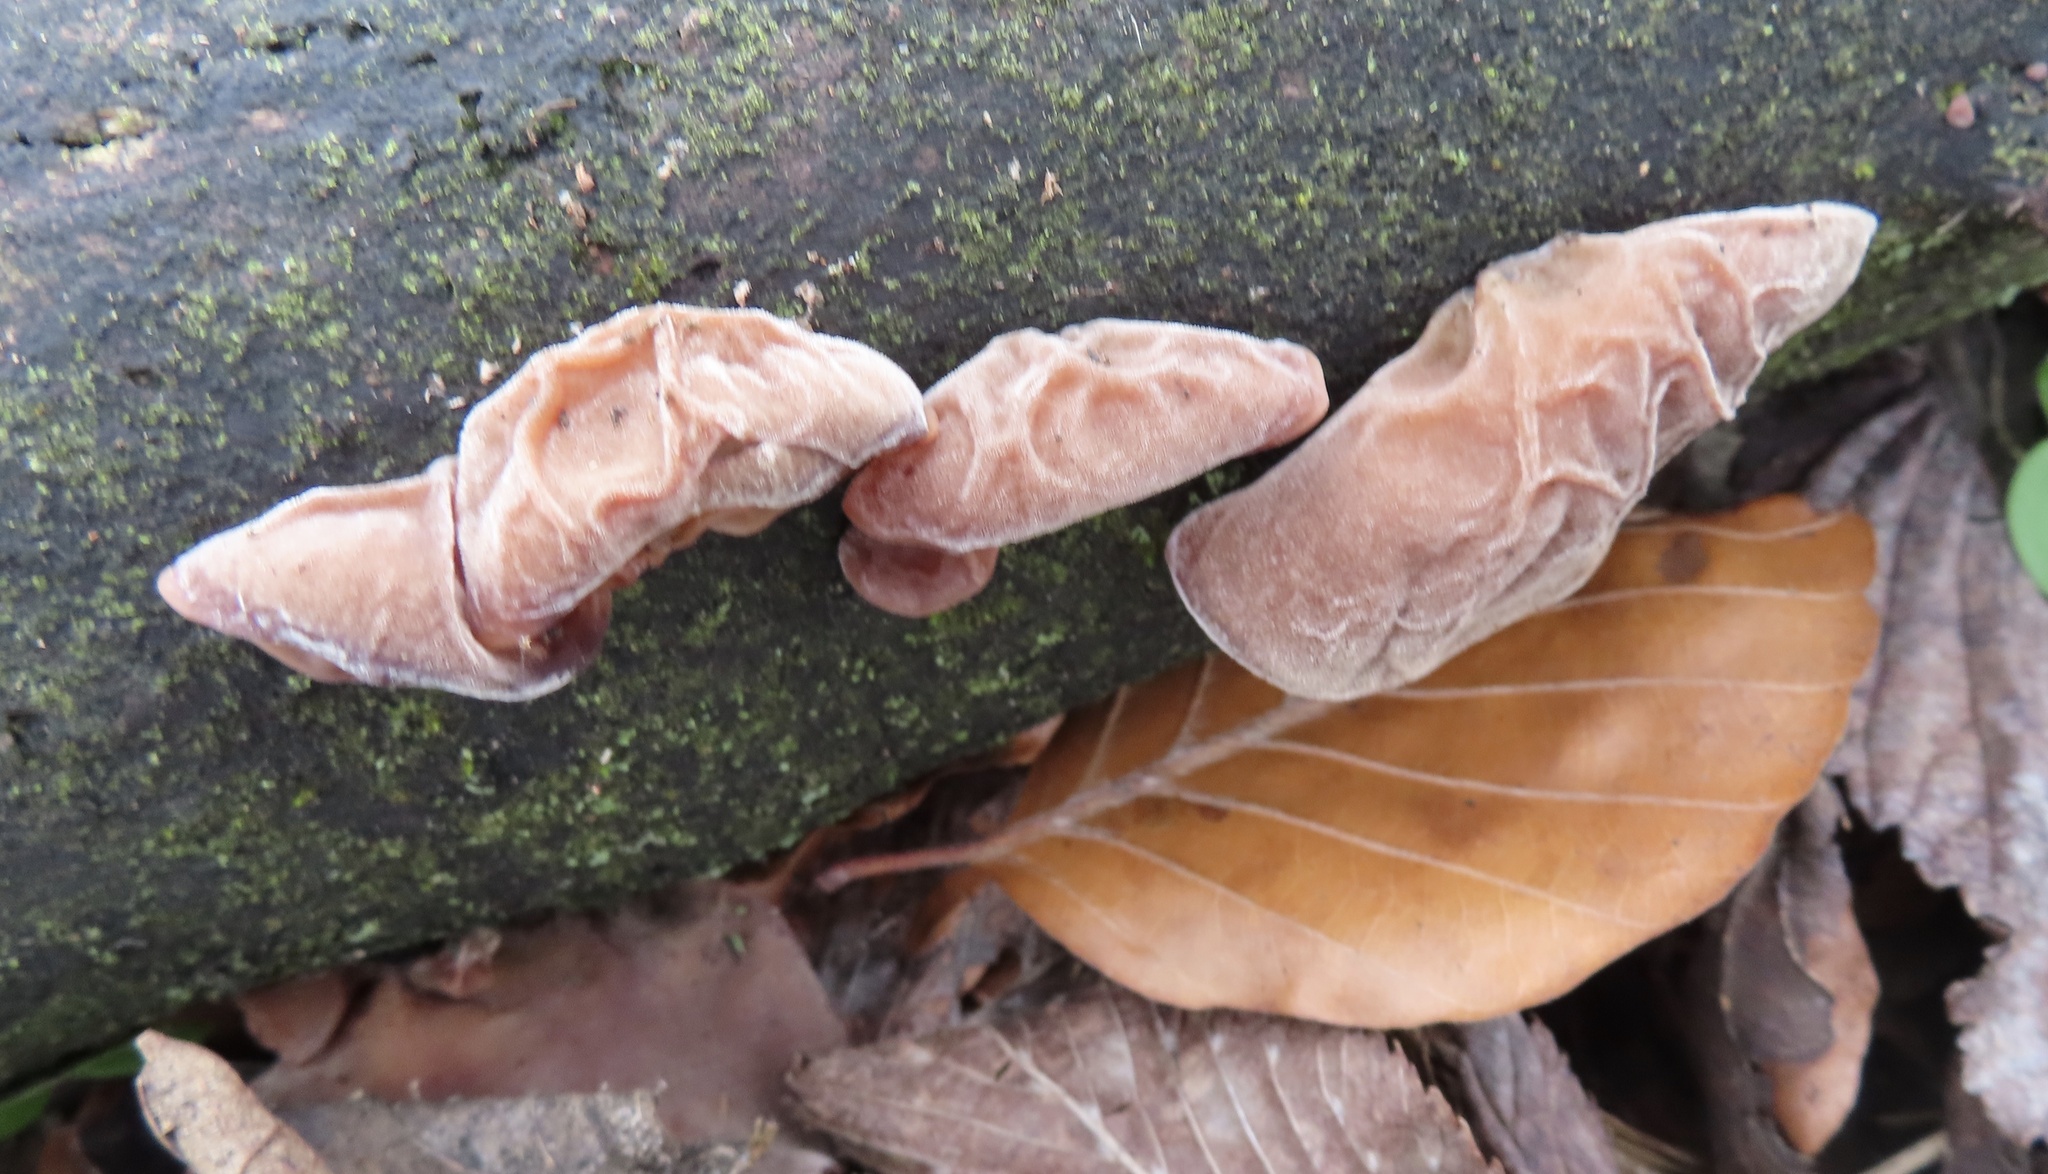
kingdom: Fungi
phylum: Basidiomycota
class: Agaricomycetes
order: Auriculariales
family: Auriculariaceae
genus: Auricularia
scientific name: Auricularia auricula-judae
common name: Jelly ear
